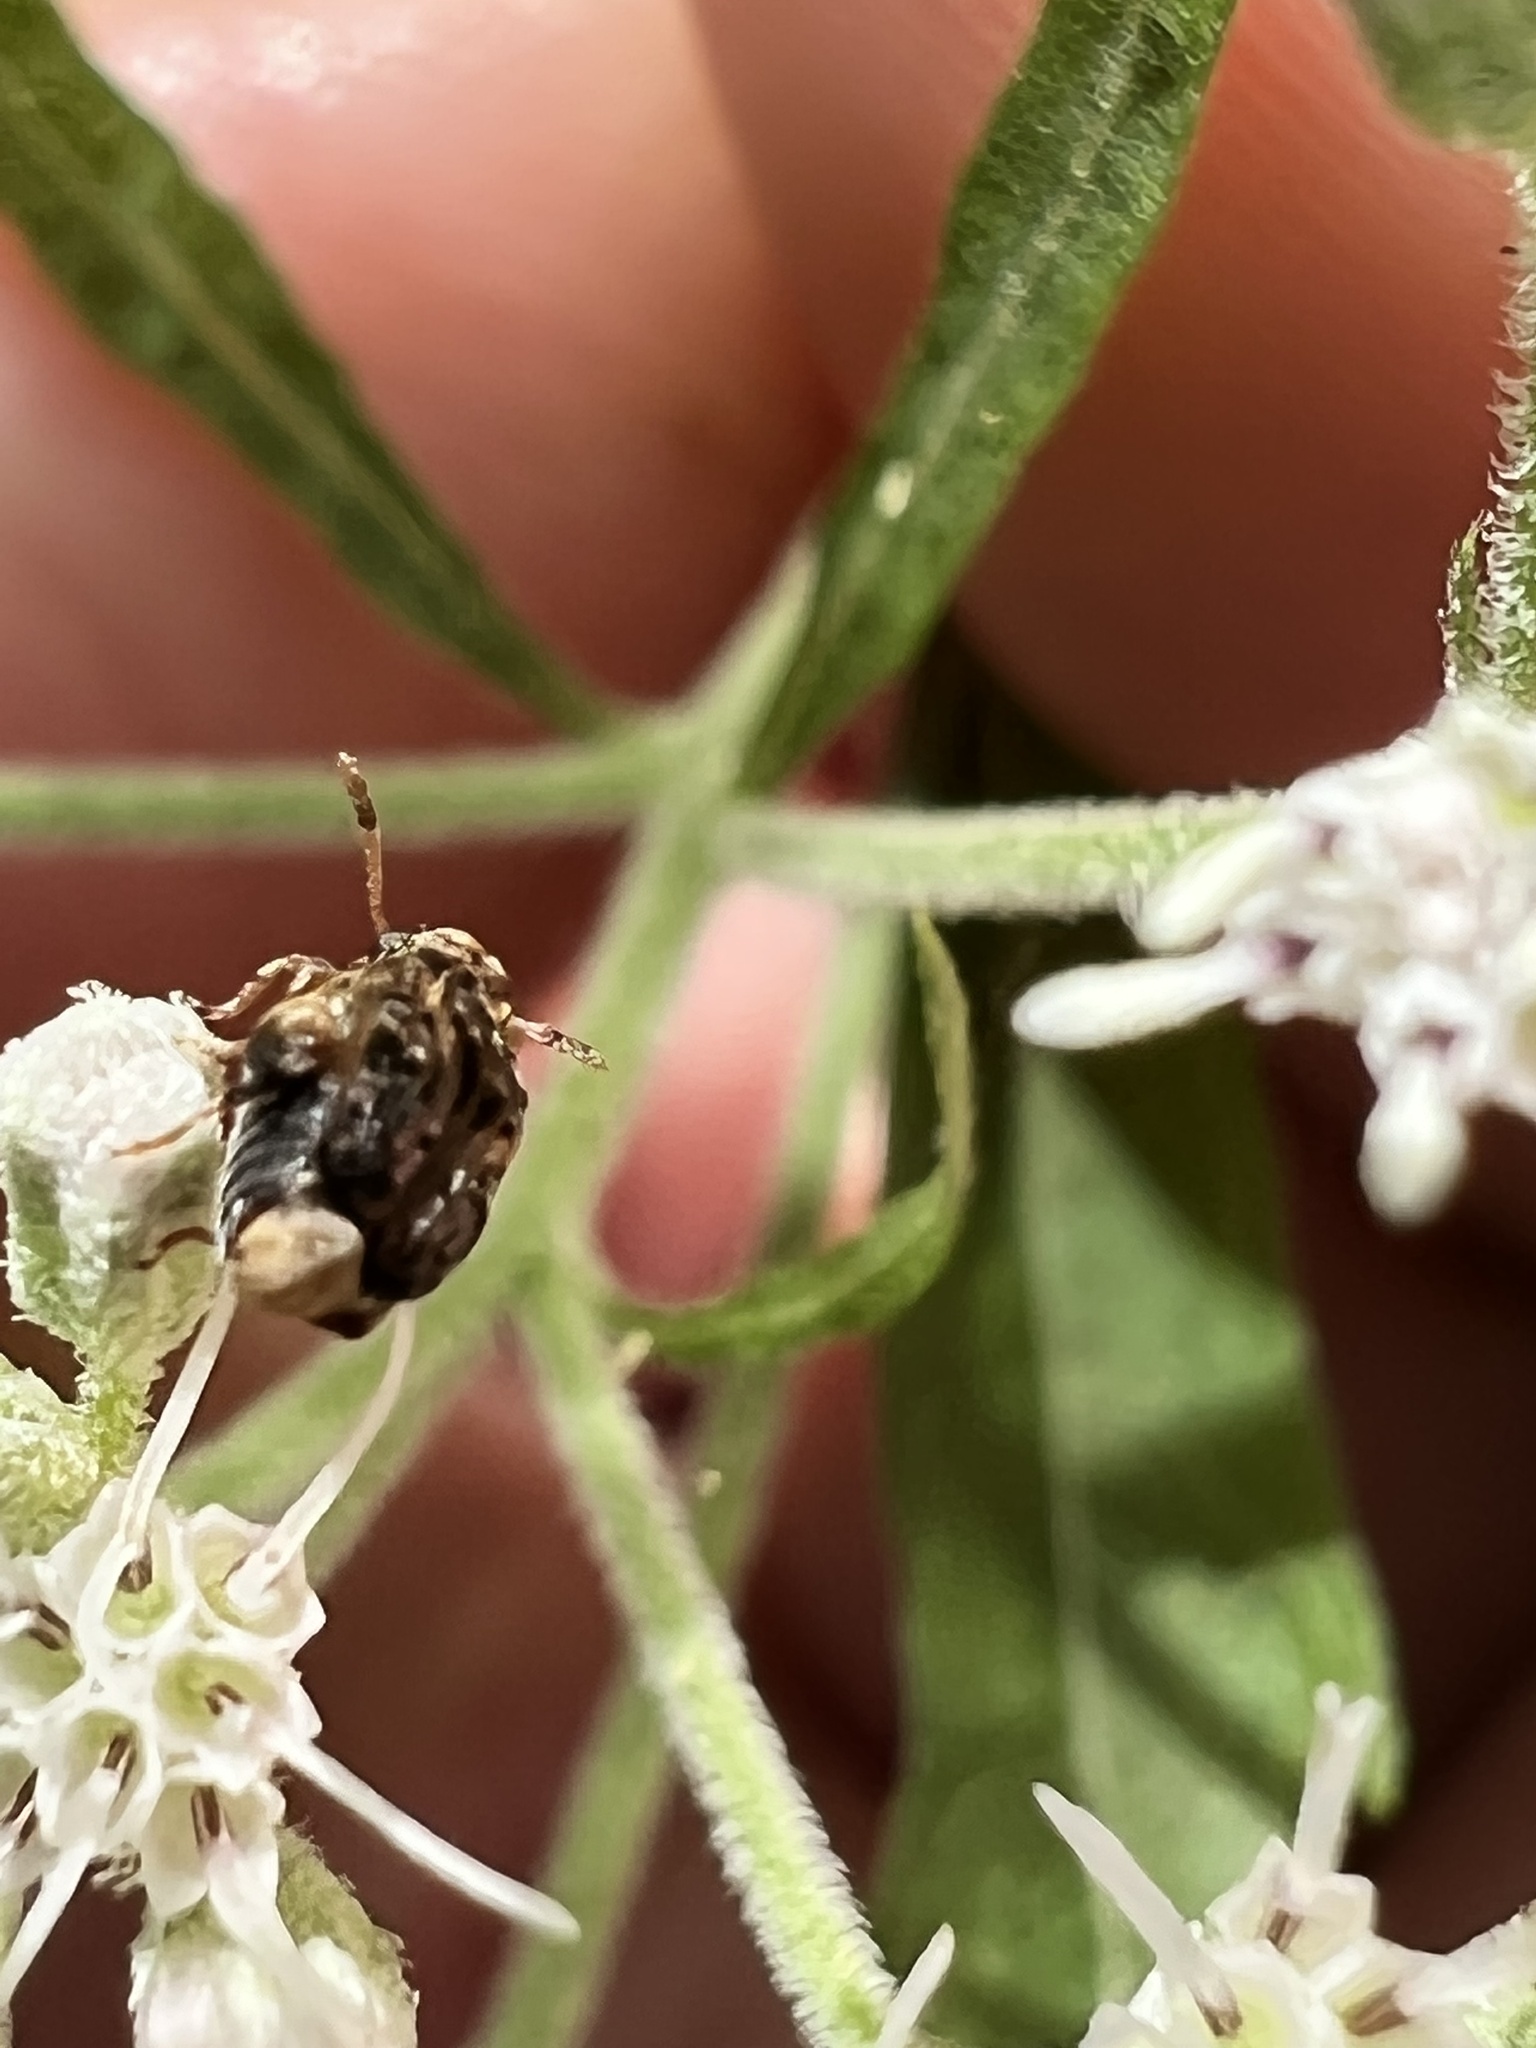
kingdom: Animalia
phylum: Arthropoda
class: Insecta
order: Coleoptera
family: Chrysomelidae
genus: Gibbobruchus
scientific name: Gibbobruchus mimus
